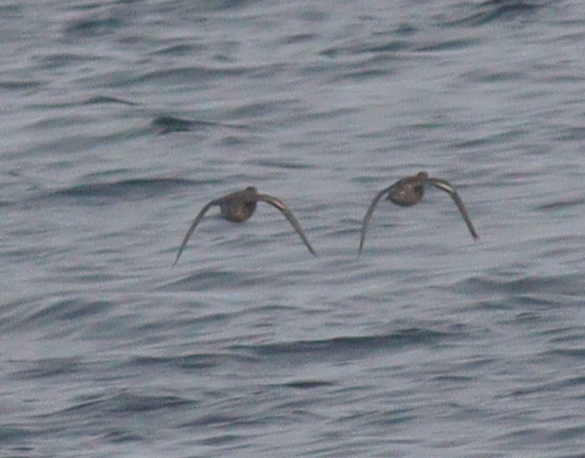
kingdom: Animalia
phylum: Chordata
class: Aves
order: Anseriformes
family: Anatidae
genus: Anas
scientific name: Anas crecca
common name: Eurasian teal
